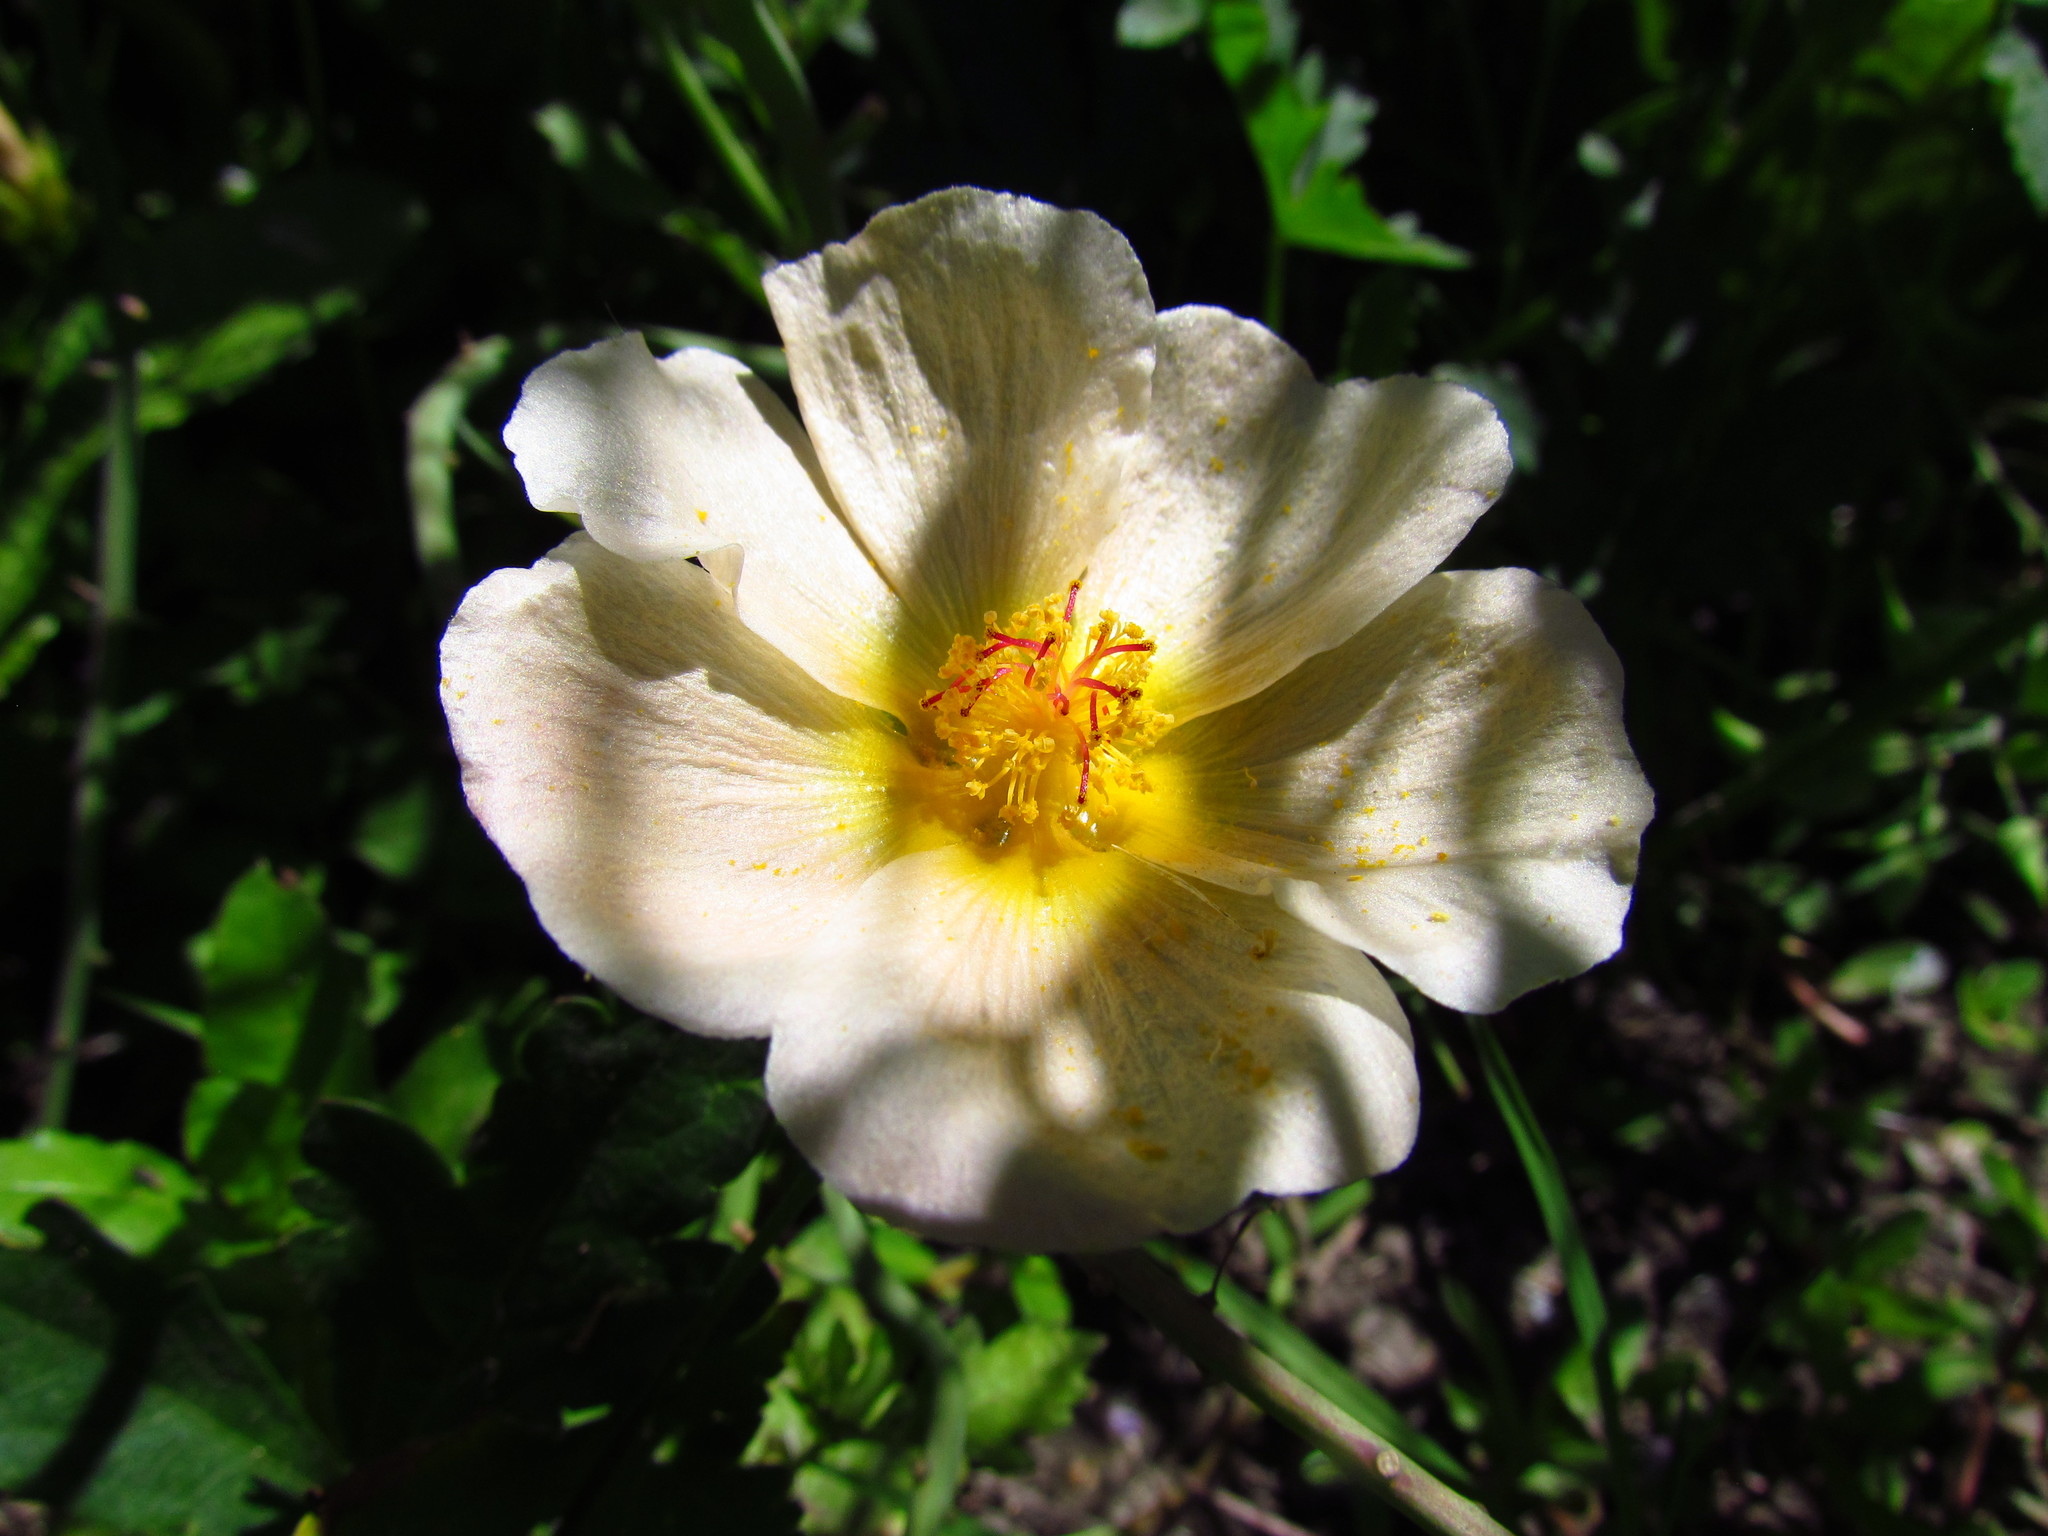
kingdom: Plantae
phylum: Tracheophyta
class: Magnoliopsida
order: Malvales
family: Malvaceae
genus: Modiolastrum
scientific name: Modiolastrum malvifolium
